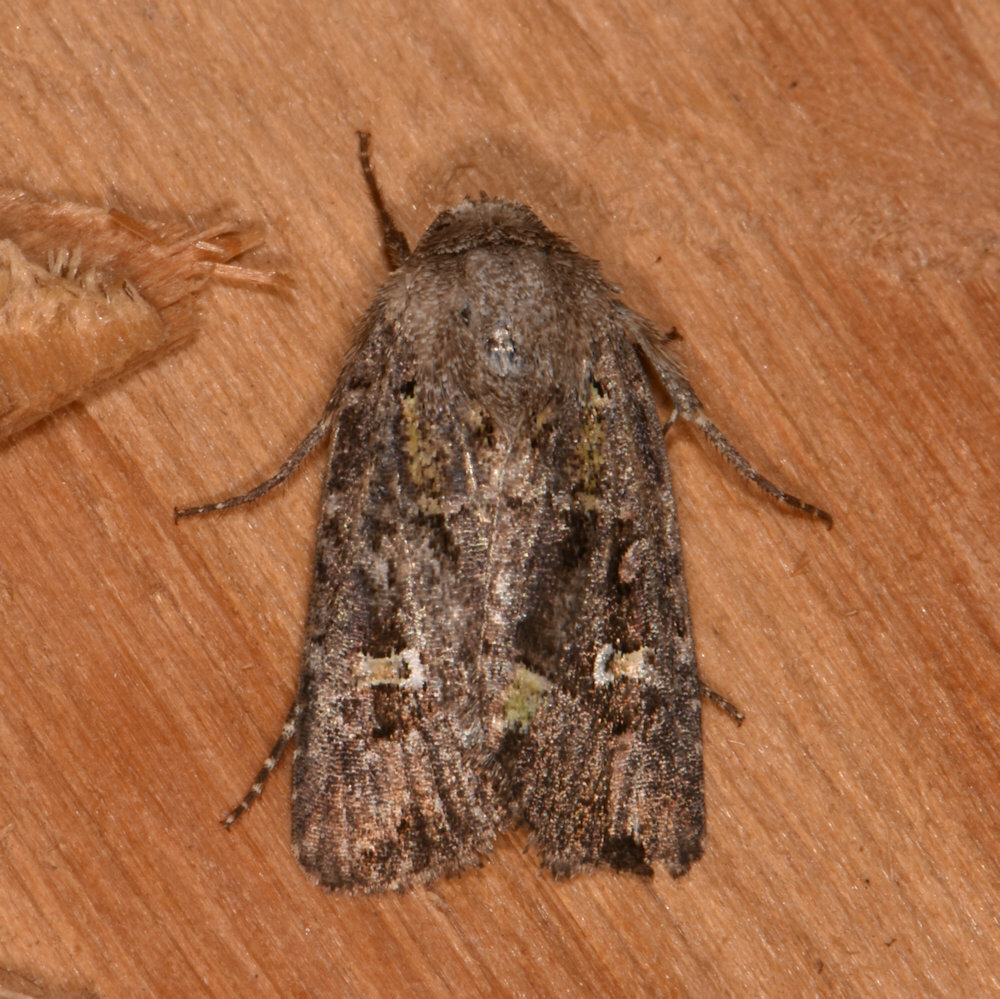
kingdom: Animalia
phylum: Arthropoda
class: Insecta
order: Lepidoptera
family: Noctuidae
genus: Lacinipolia
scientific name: Lacinipolia renigera
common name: Kidney-spotted minor
